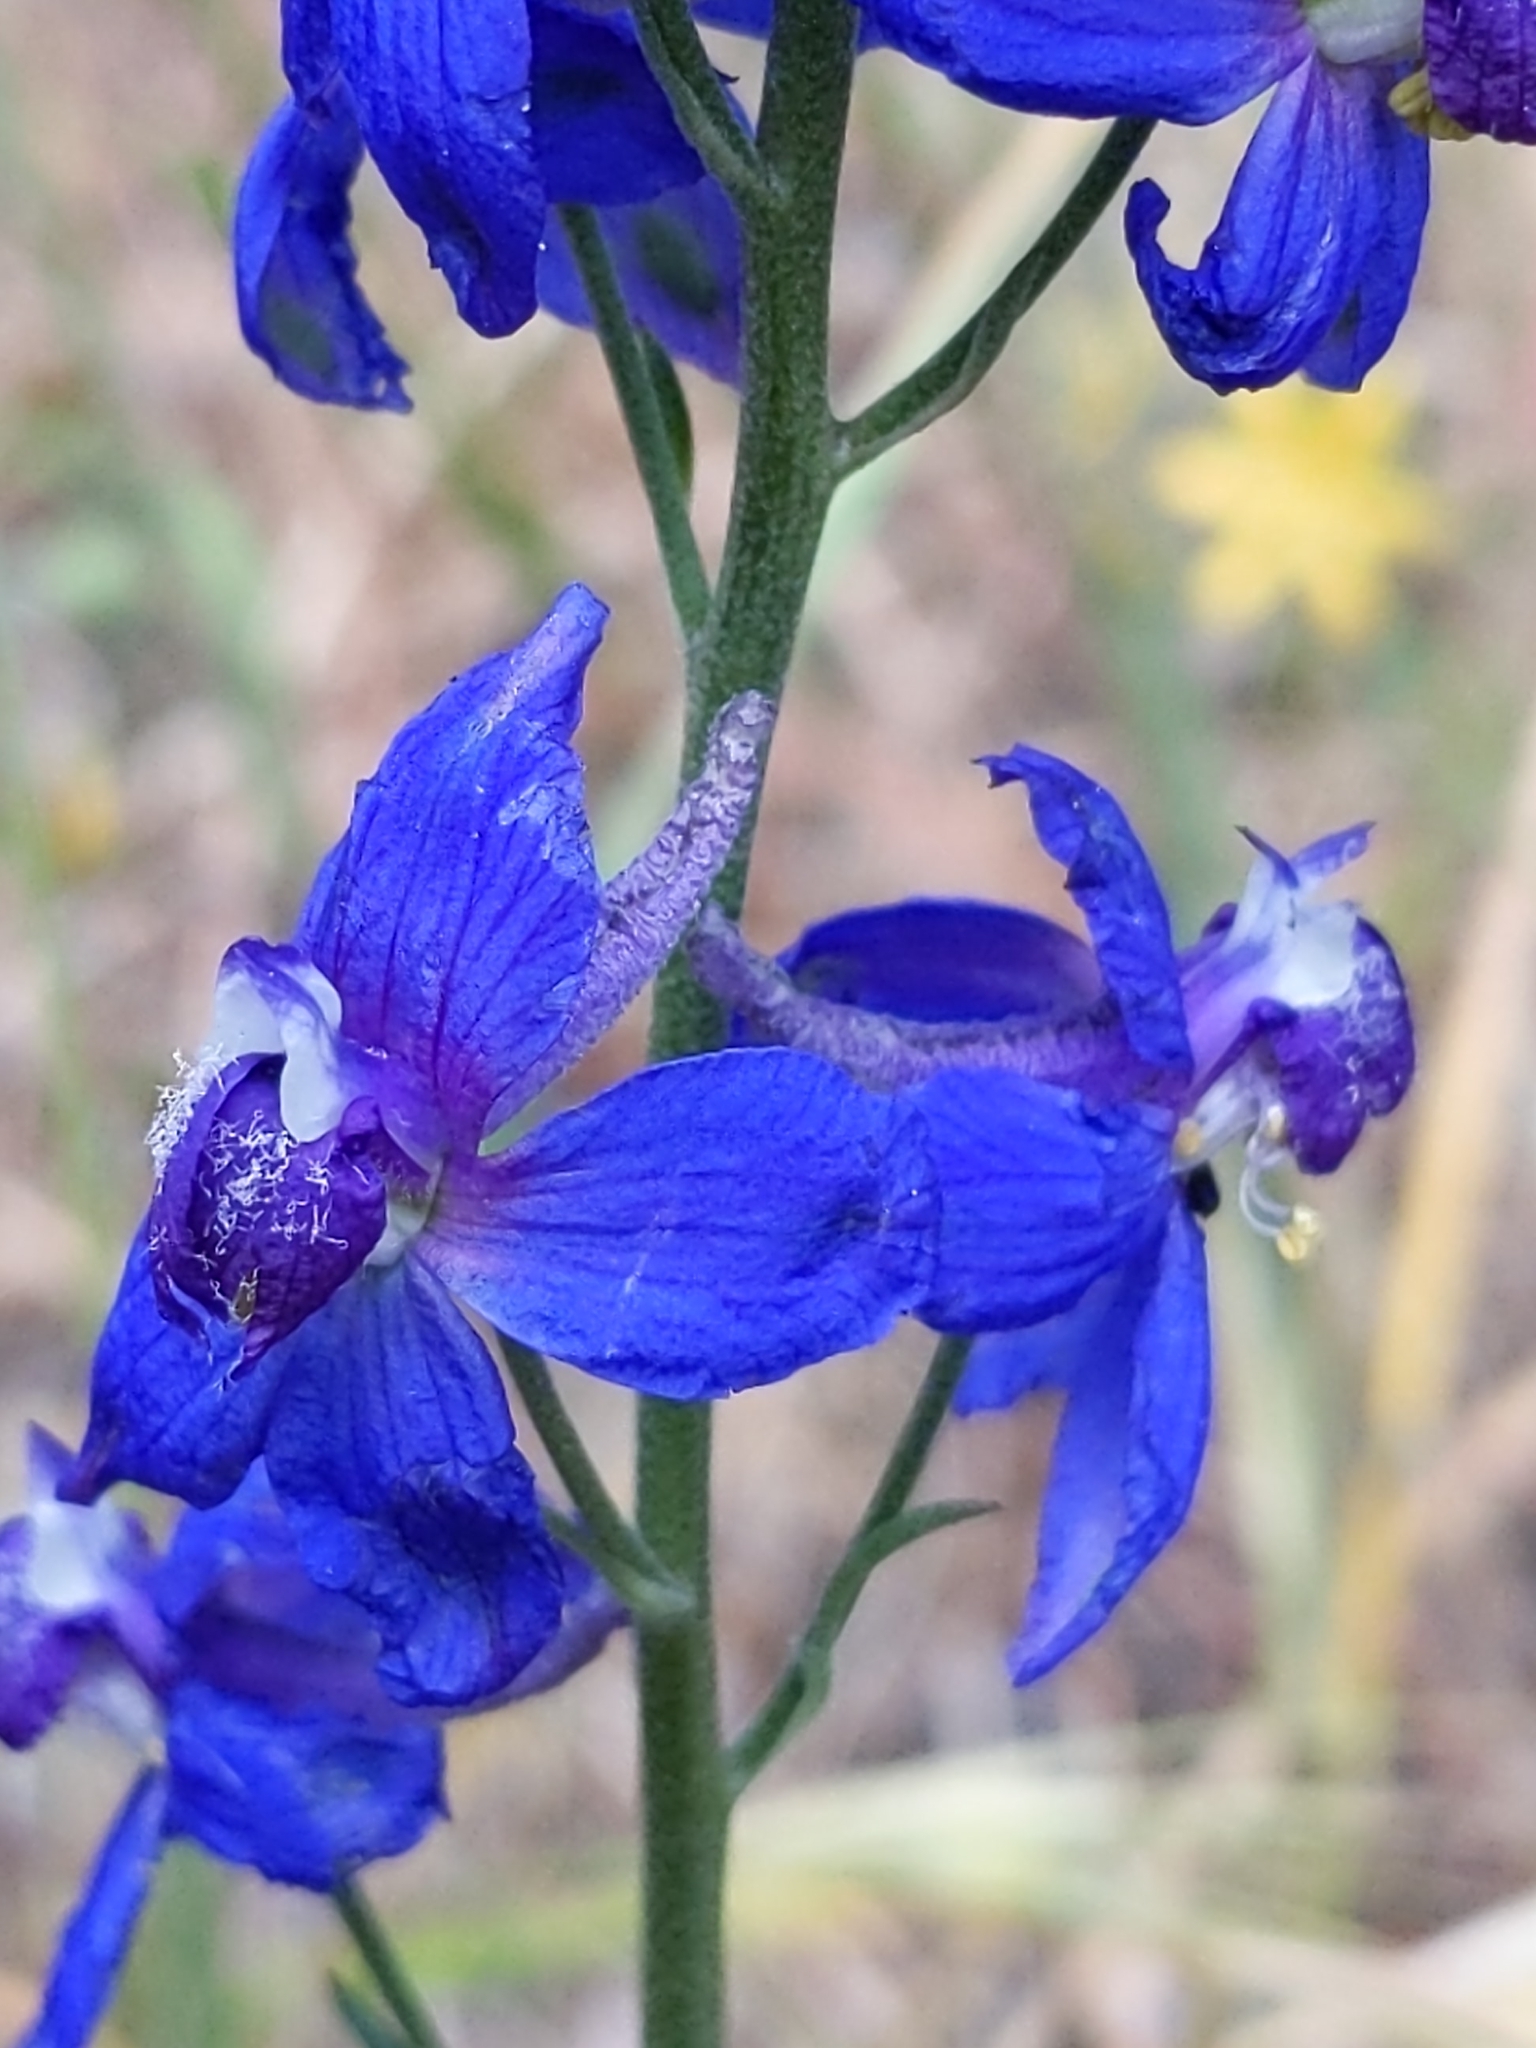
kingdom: Plantae
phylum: Tracheophyta
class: Magnoliopsida
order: Ranunculales
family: Ranunculaceae
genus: Delphinium
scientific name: Delphinium parryi
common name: Parry's larkspur
